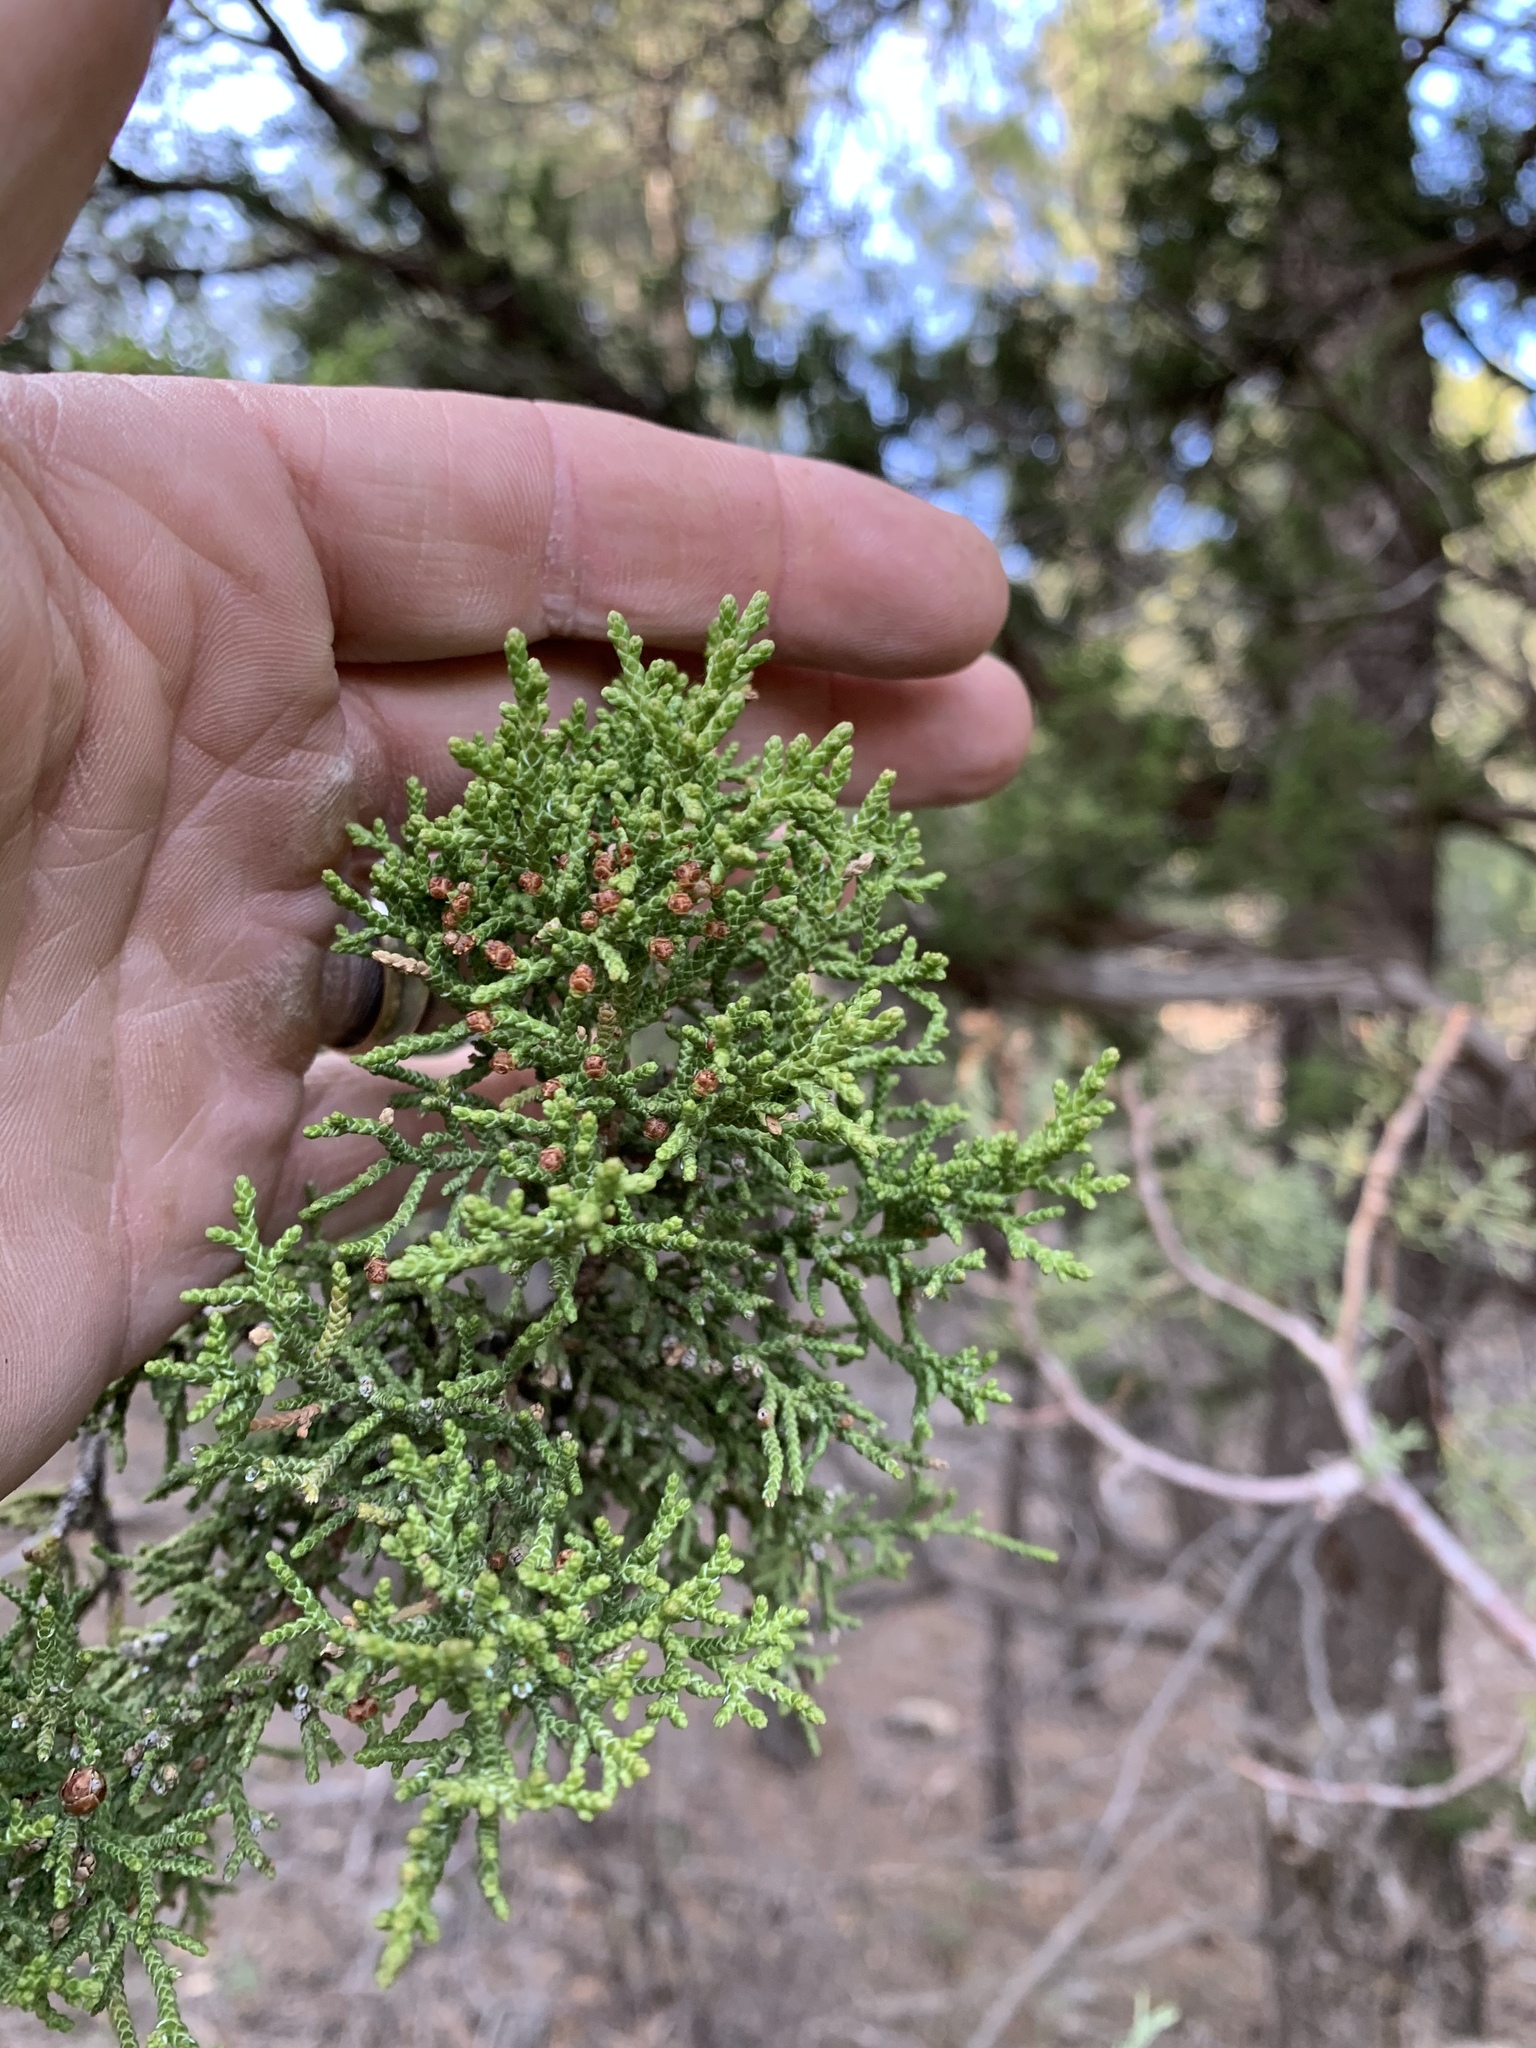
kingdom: Plantae
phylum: Tracheophyta
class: Pinopsida
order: Pinales
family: Cupressaceae
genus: Juniperus
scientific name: Juniperus monosperma
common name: One-seed juniper
